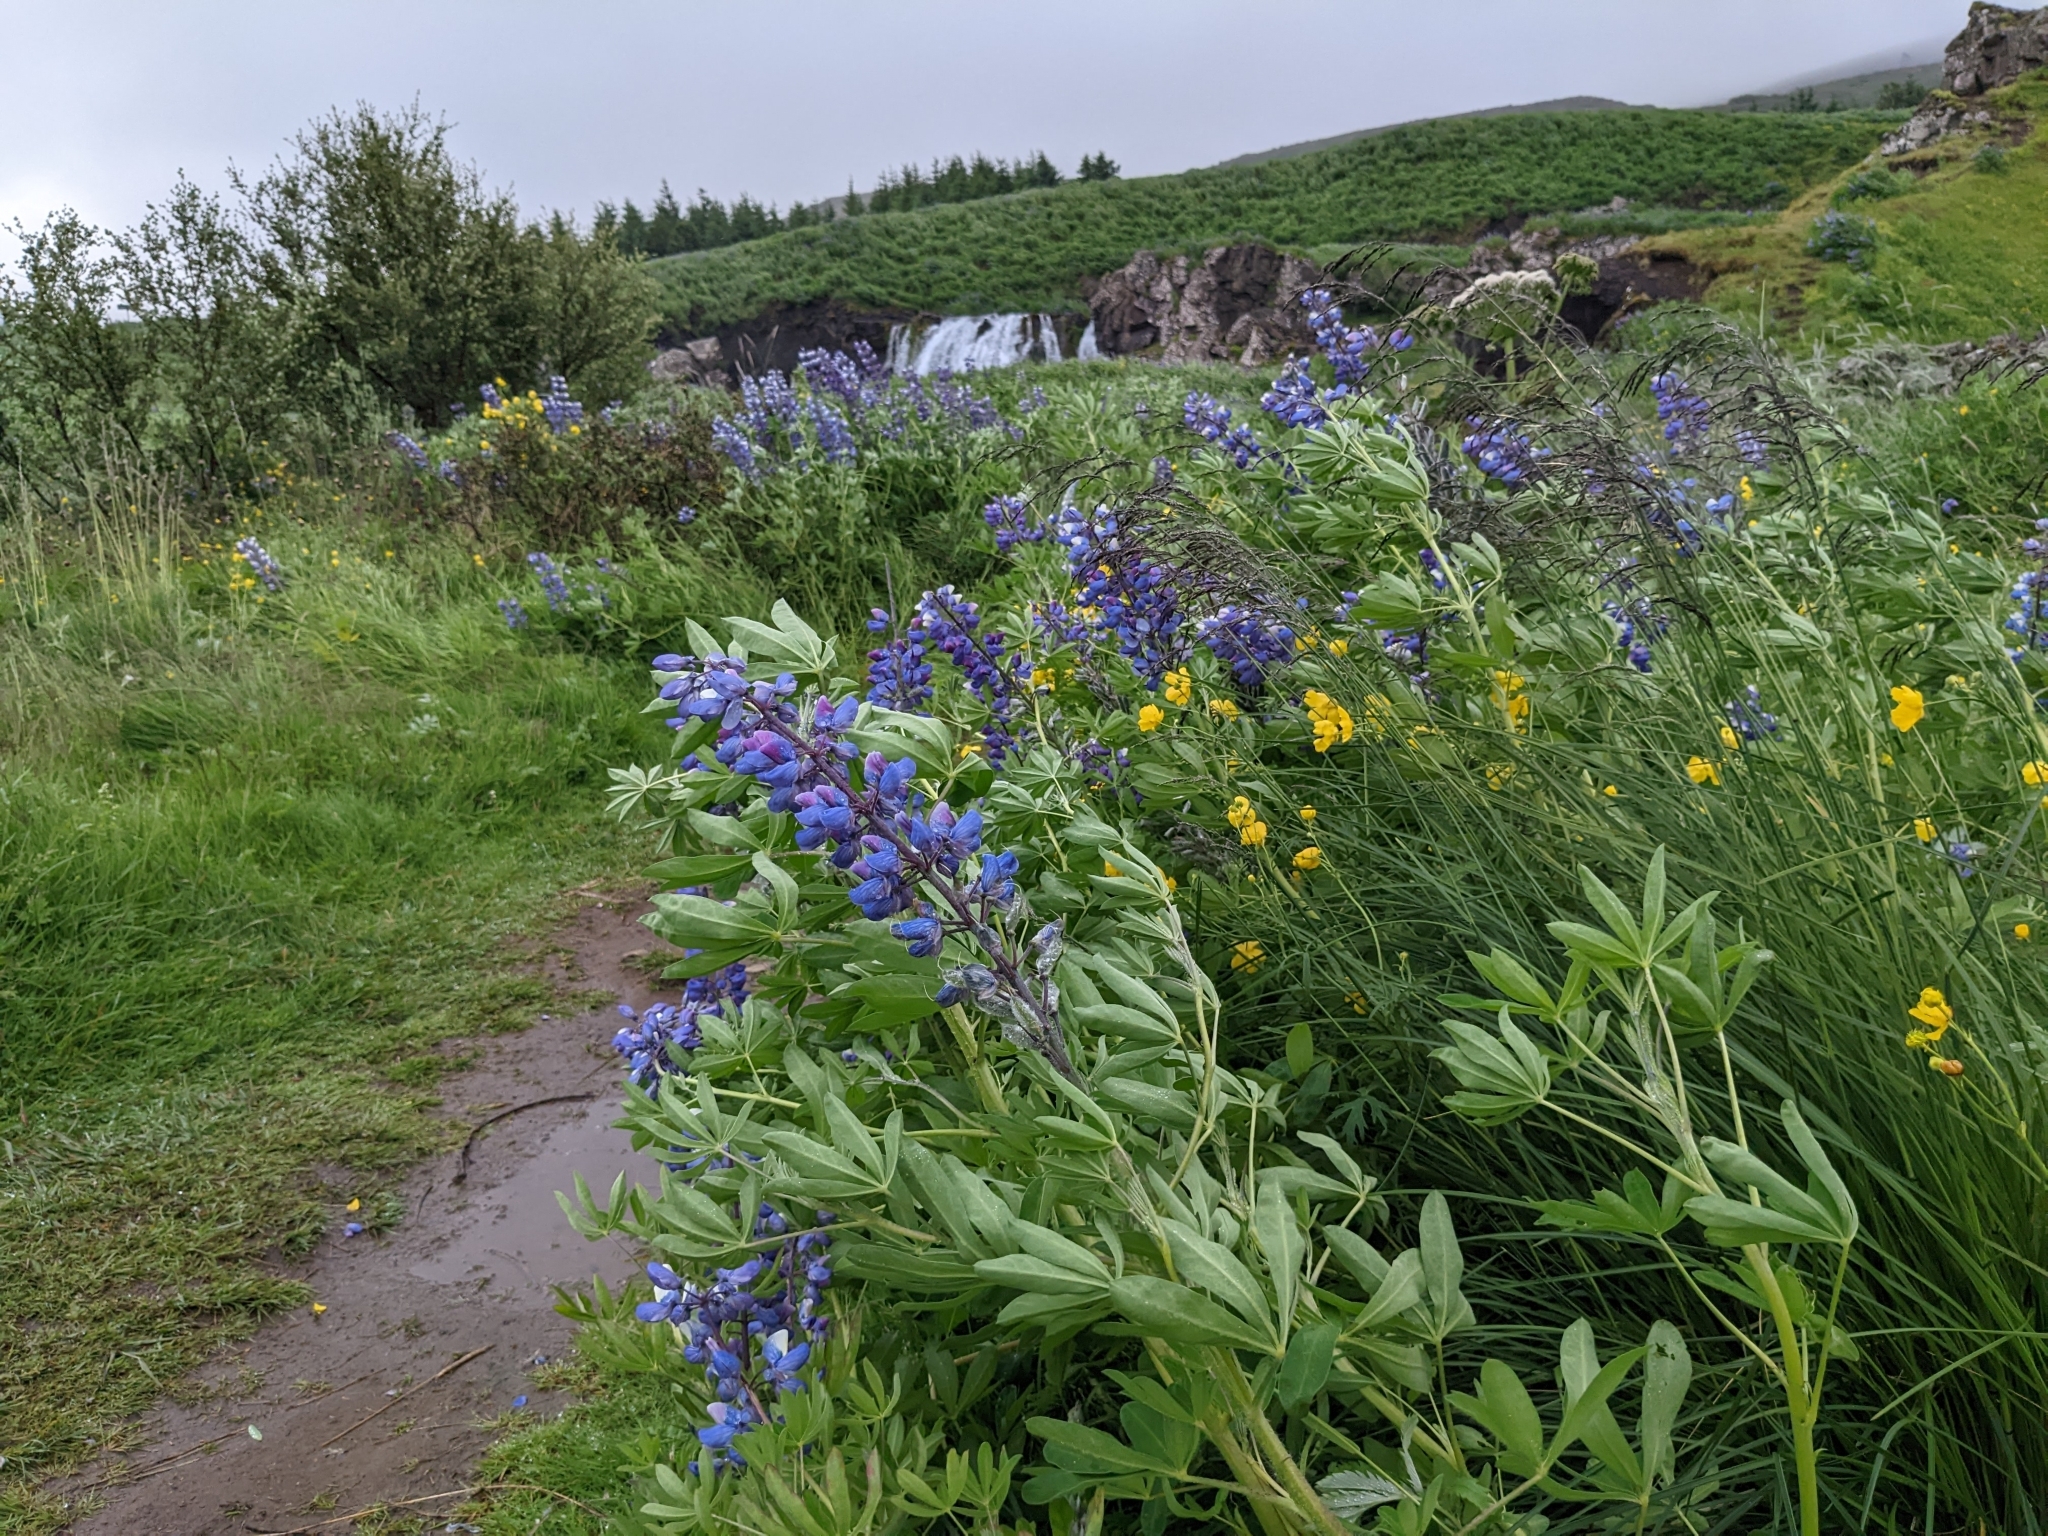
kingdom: Plantae
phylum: Tracheophyta
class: Magnoliopsida
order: Fabales
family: Fabaceae
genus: Lupinus
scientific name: Lupinus nootkatensis
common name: Nootka lupine
